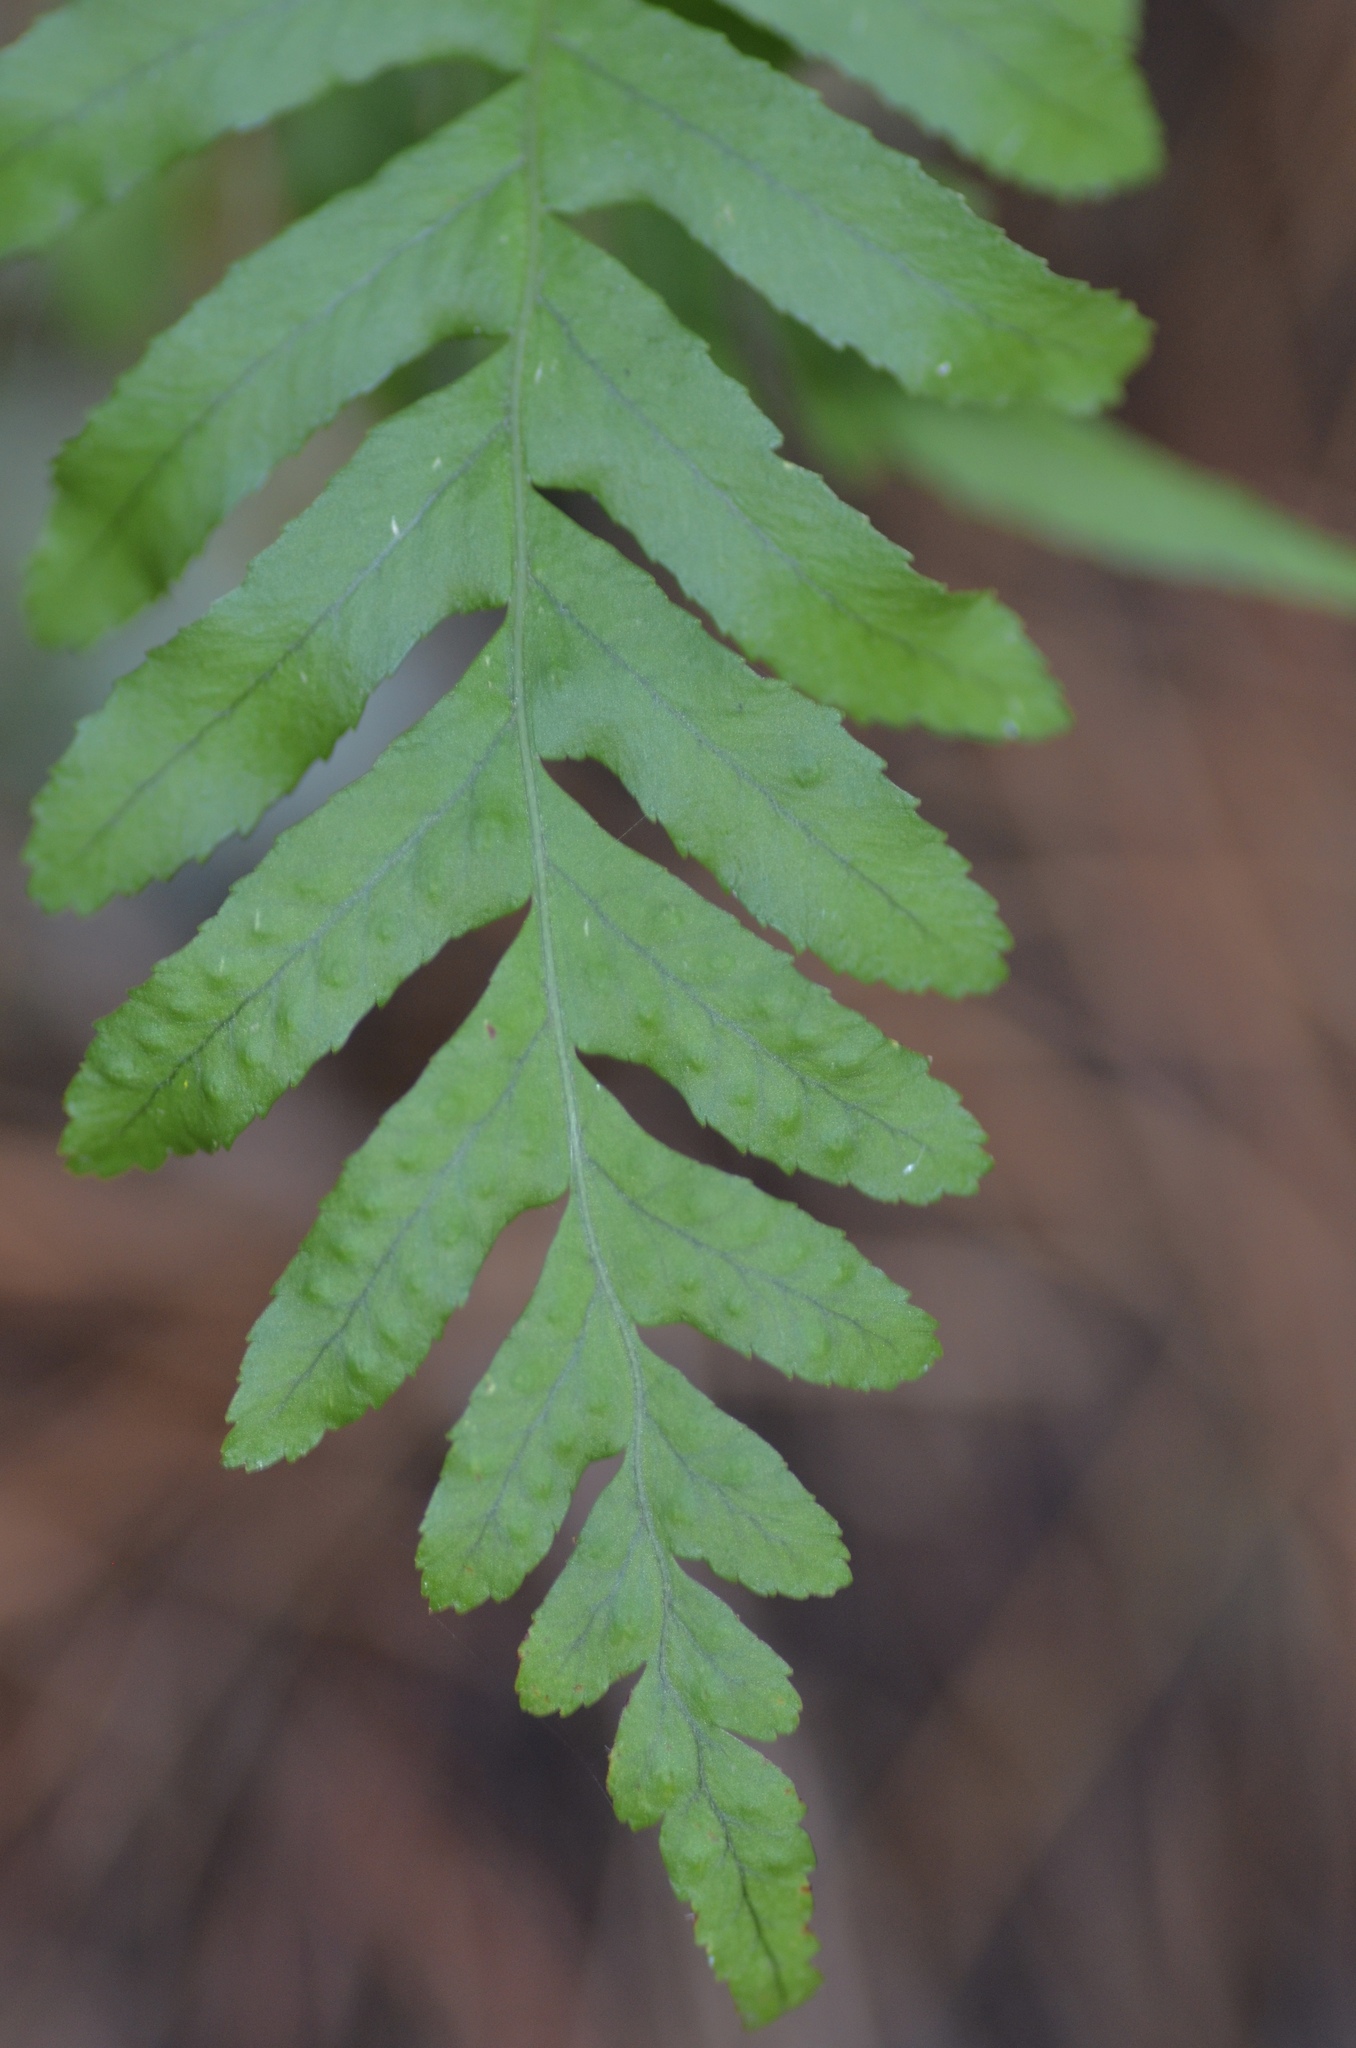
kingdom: Plantae
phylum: Tracheophyta
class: Polypodiopsida
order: Polypodiales
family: Polypodiaceae
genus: Polypodium
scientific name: Polypodium vulgare
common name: Common polypody
